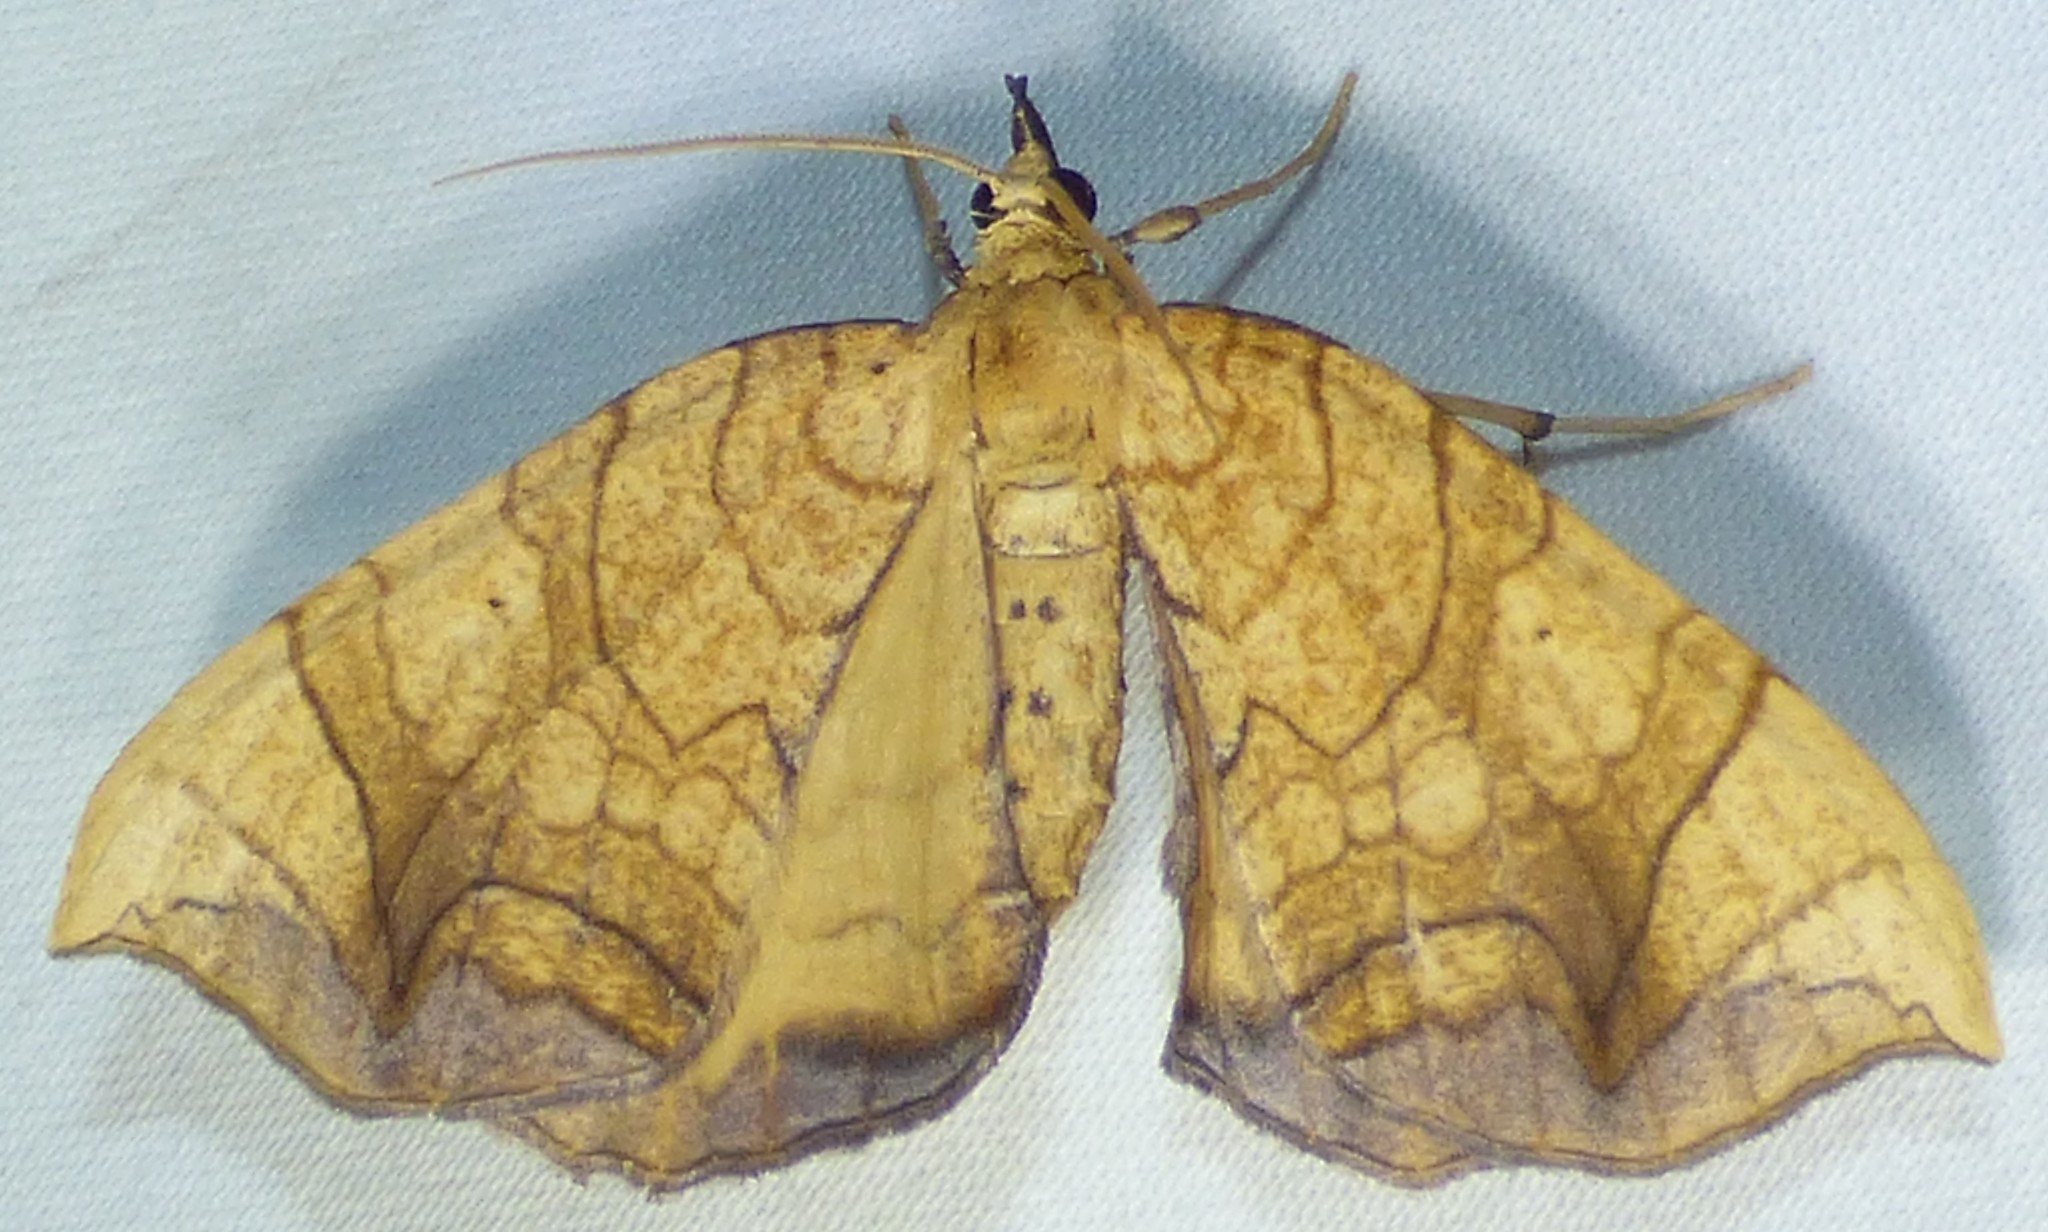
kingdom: Animalia
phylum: Arthropoda
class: Insecta
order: Lepidoptera
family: Geometridae
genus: Eulithis
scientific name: Eulithis
